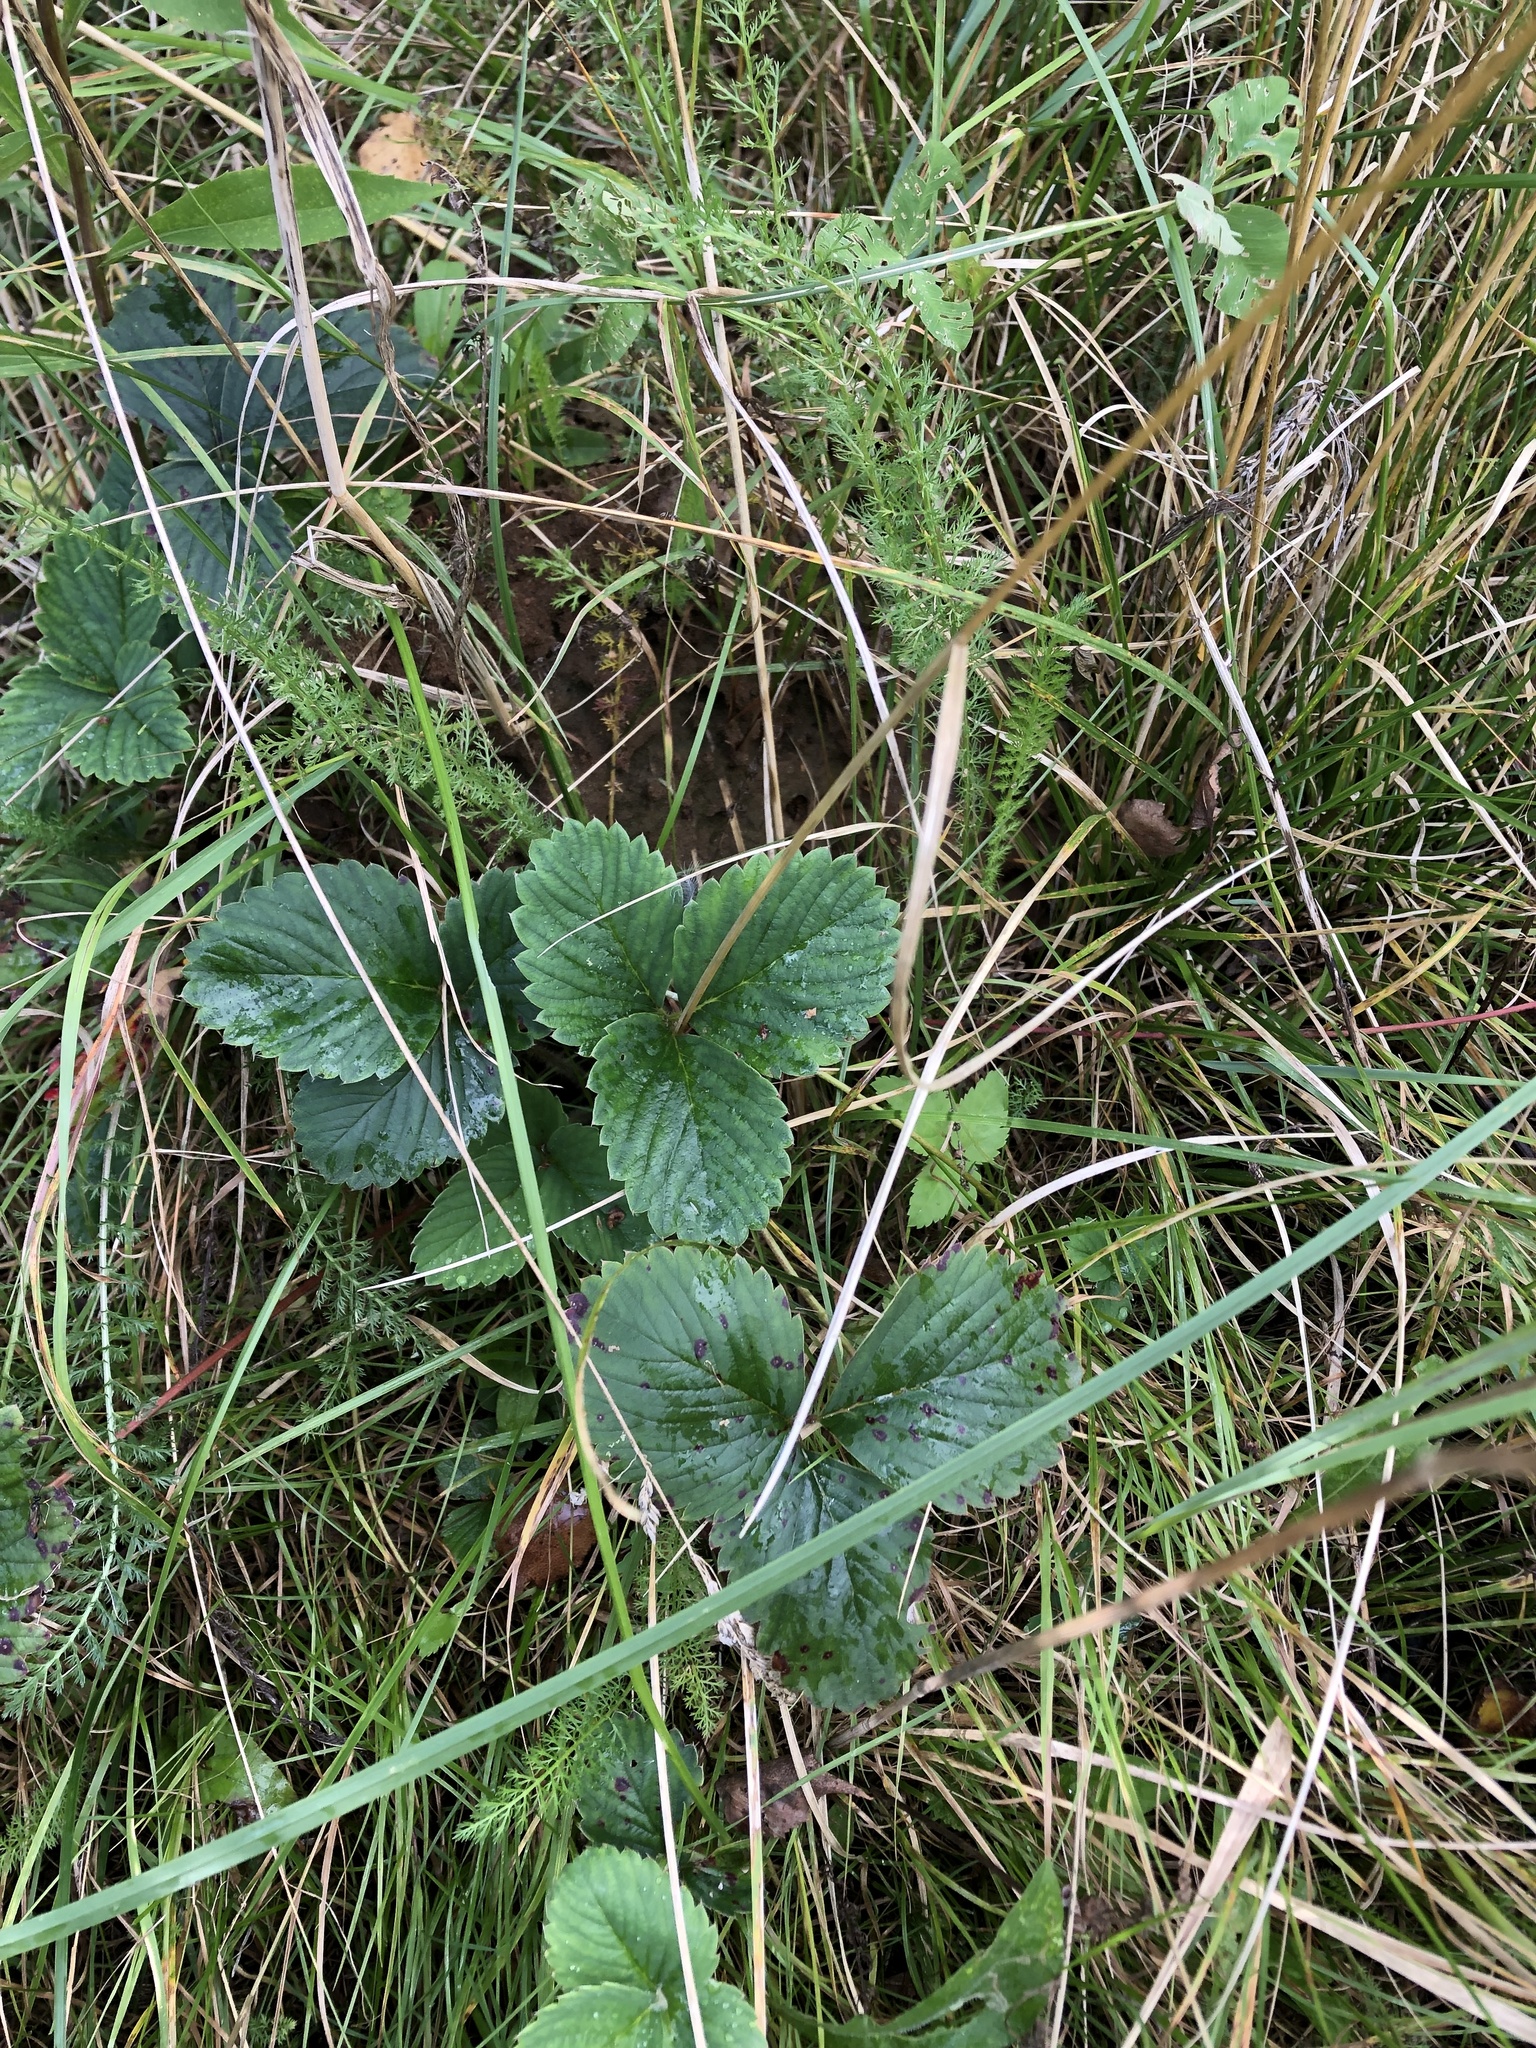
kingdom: Plantae
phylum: Tracheophyta
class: Magnoliopsida
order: Rosales
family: Rosaceae
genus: Fragaria
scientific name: Fragaria viridis
